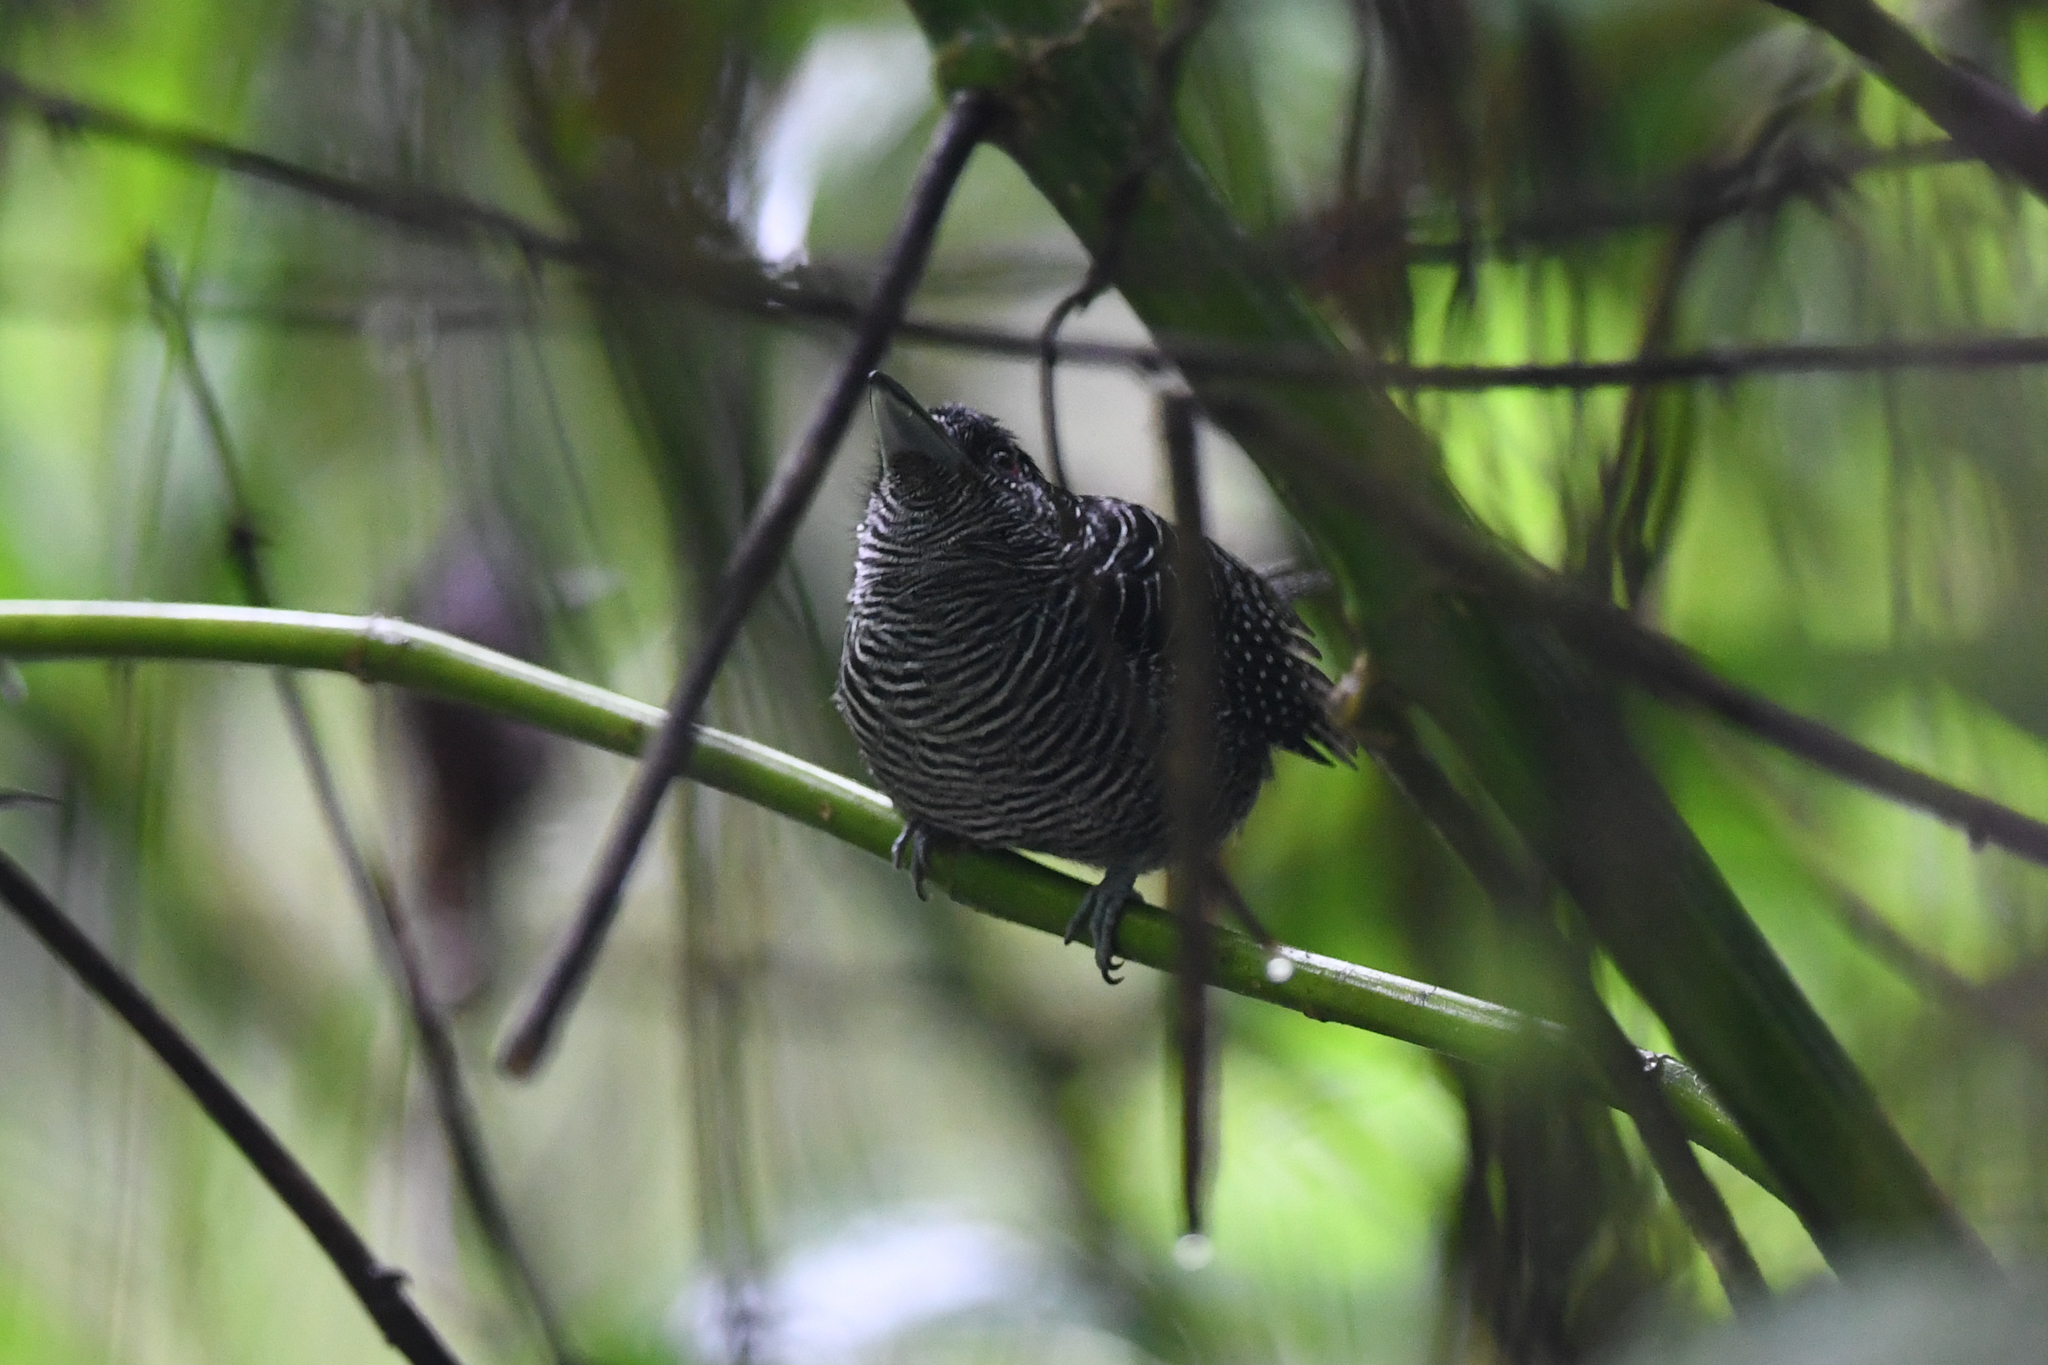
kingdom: Animalia
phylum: Chordata
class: Aves
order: Passeriformes
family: Thamnophilidae
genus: Cymbilaimus
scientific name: Cymbilaimus lineatus
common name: Fasciated antshrike
